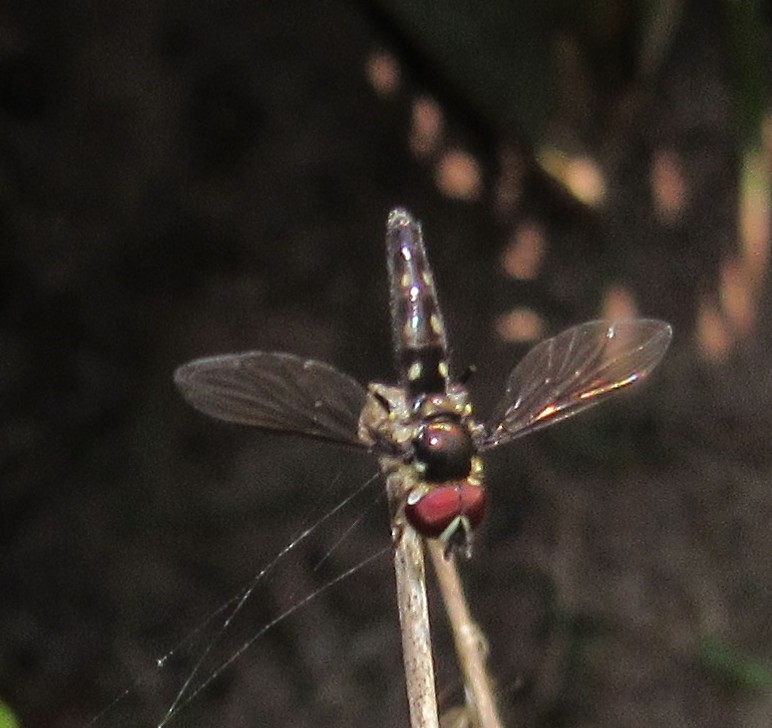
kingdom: Animalia
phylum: Arthropoda
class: Insecta
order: Diptera
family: Syrphidae
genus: Ocyptamus
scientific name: Ocyptamus gastrostactus
